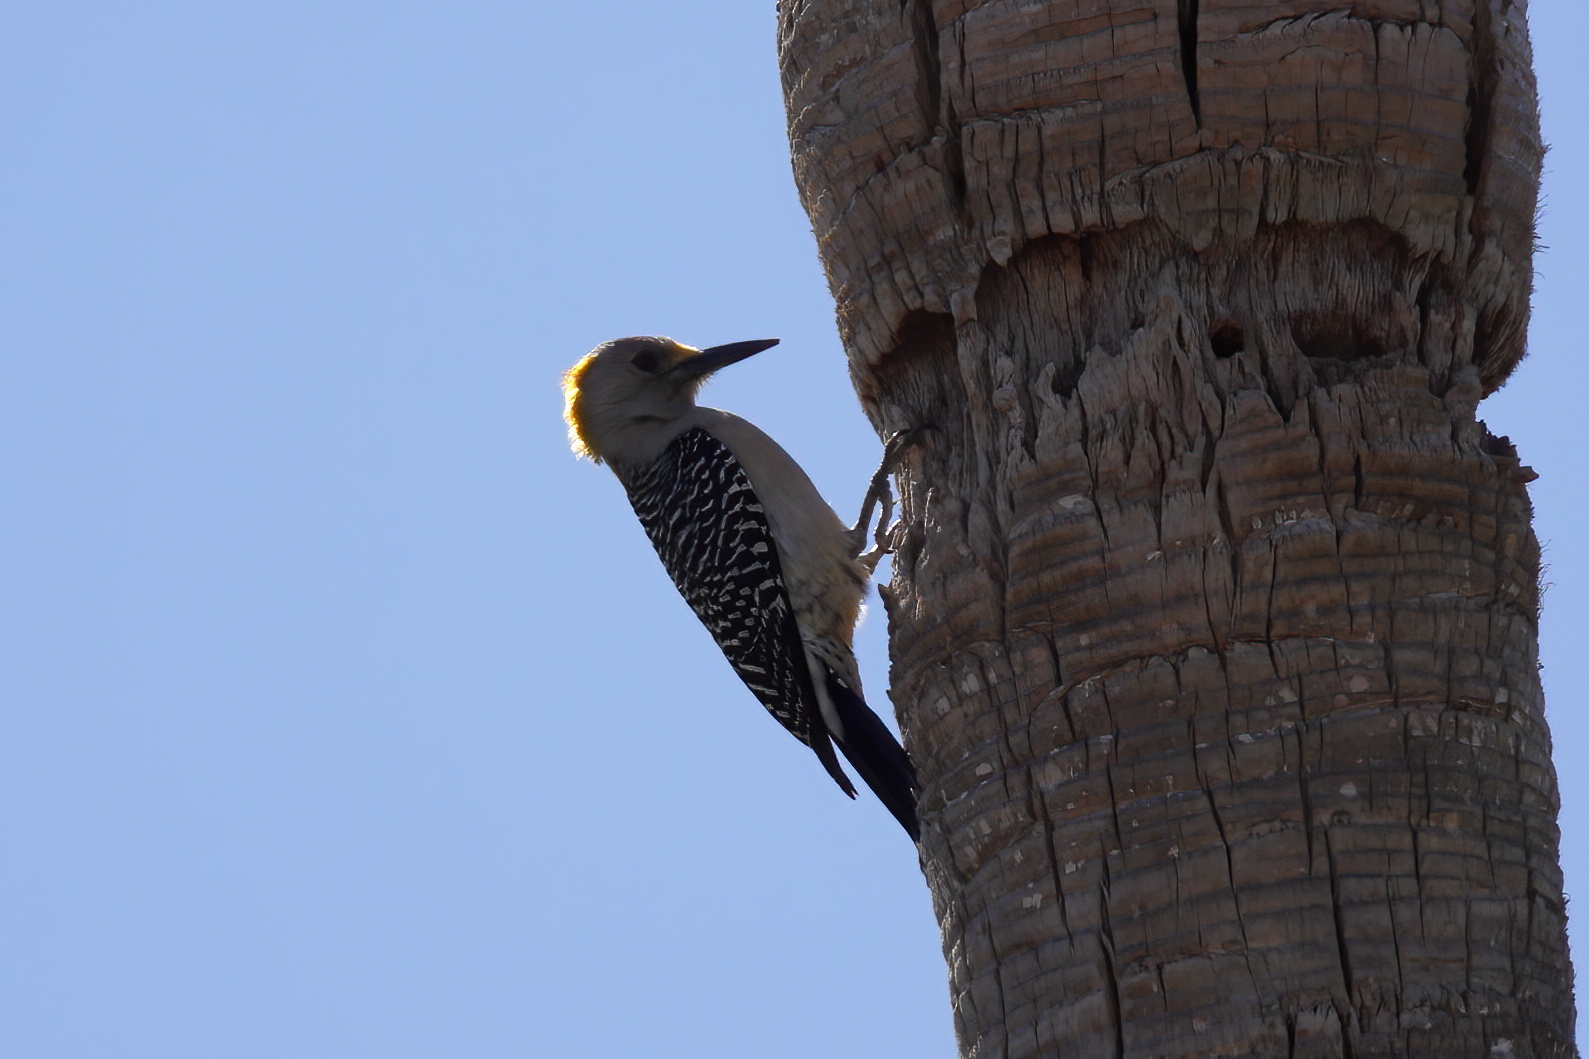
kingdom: Animalia
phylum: Chordata
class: Aves
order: Piciformes
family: Picidae
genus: Melanerpes
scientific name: Melanerpes aurifrons
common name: Golden-fronted woodpecker
